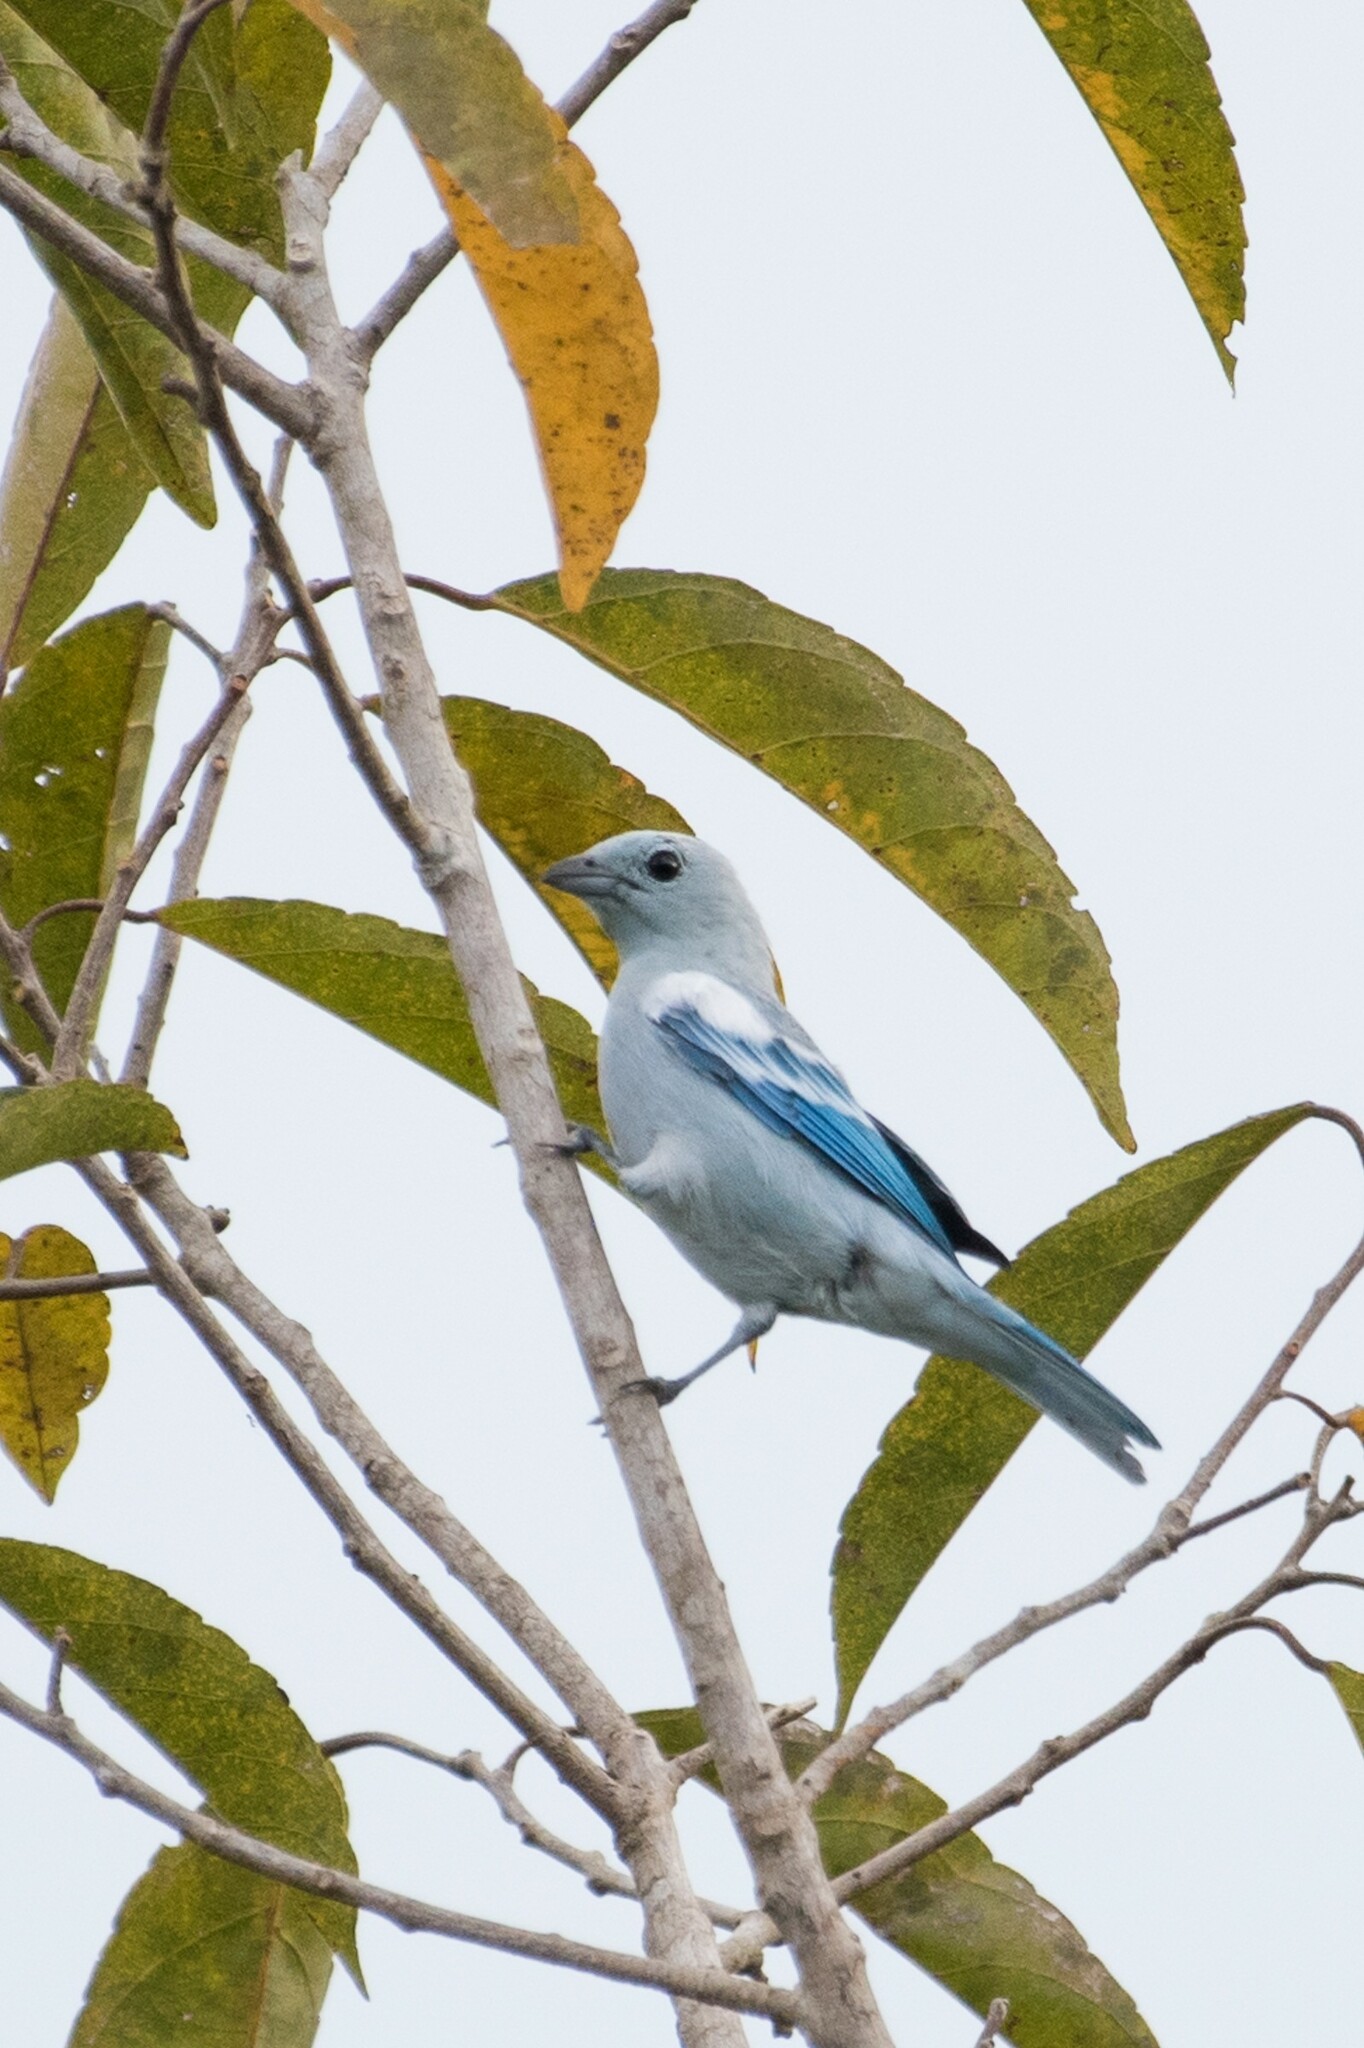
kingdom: Animalia
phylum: Chordata
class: Aves
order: Passeriformes
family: Thraupidae
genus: Thraupis
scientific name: Thraupis episcopus
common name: Blue-grey tanager
